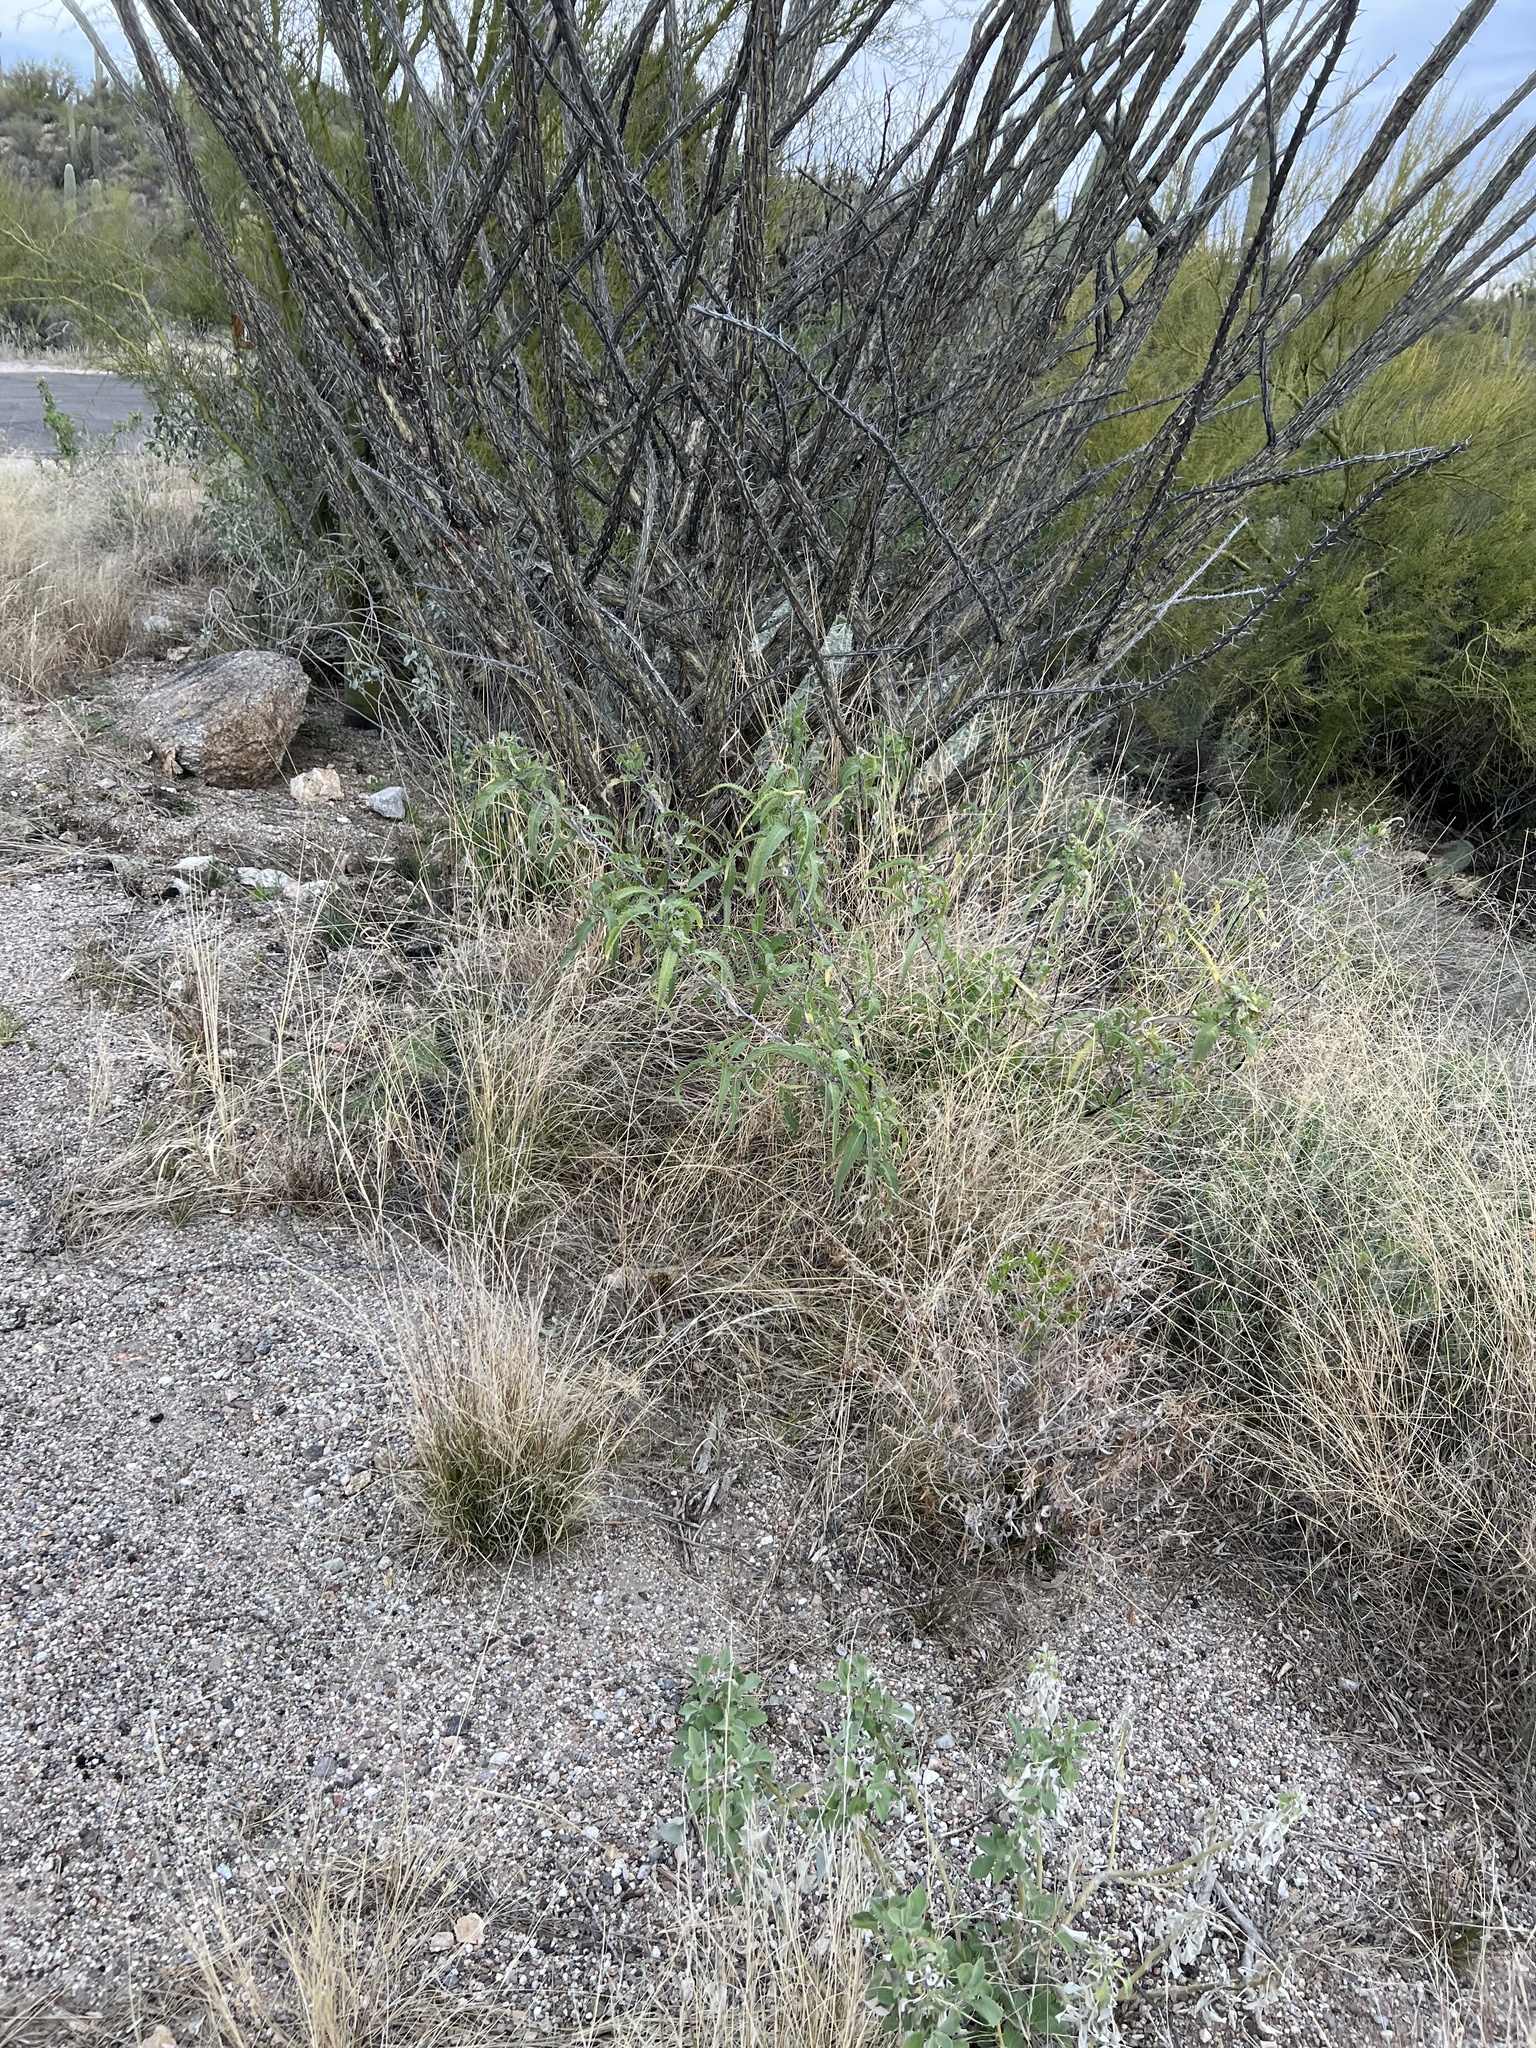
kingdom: Plantae
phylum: Tracheophyta
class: Magnoliopsida
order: Asterales
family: Asteraceae
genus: Ambrosia
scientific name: Ambrosia ambrosioides
